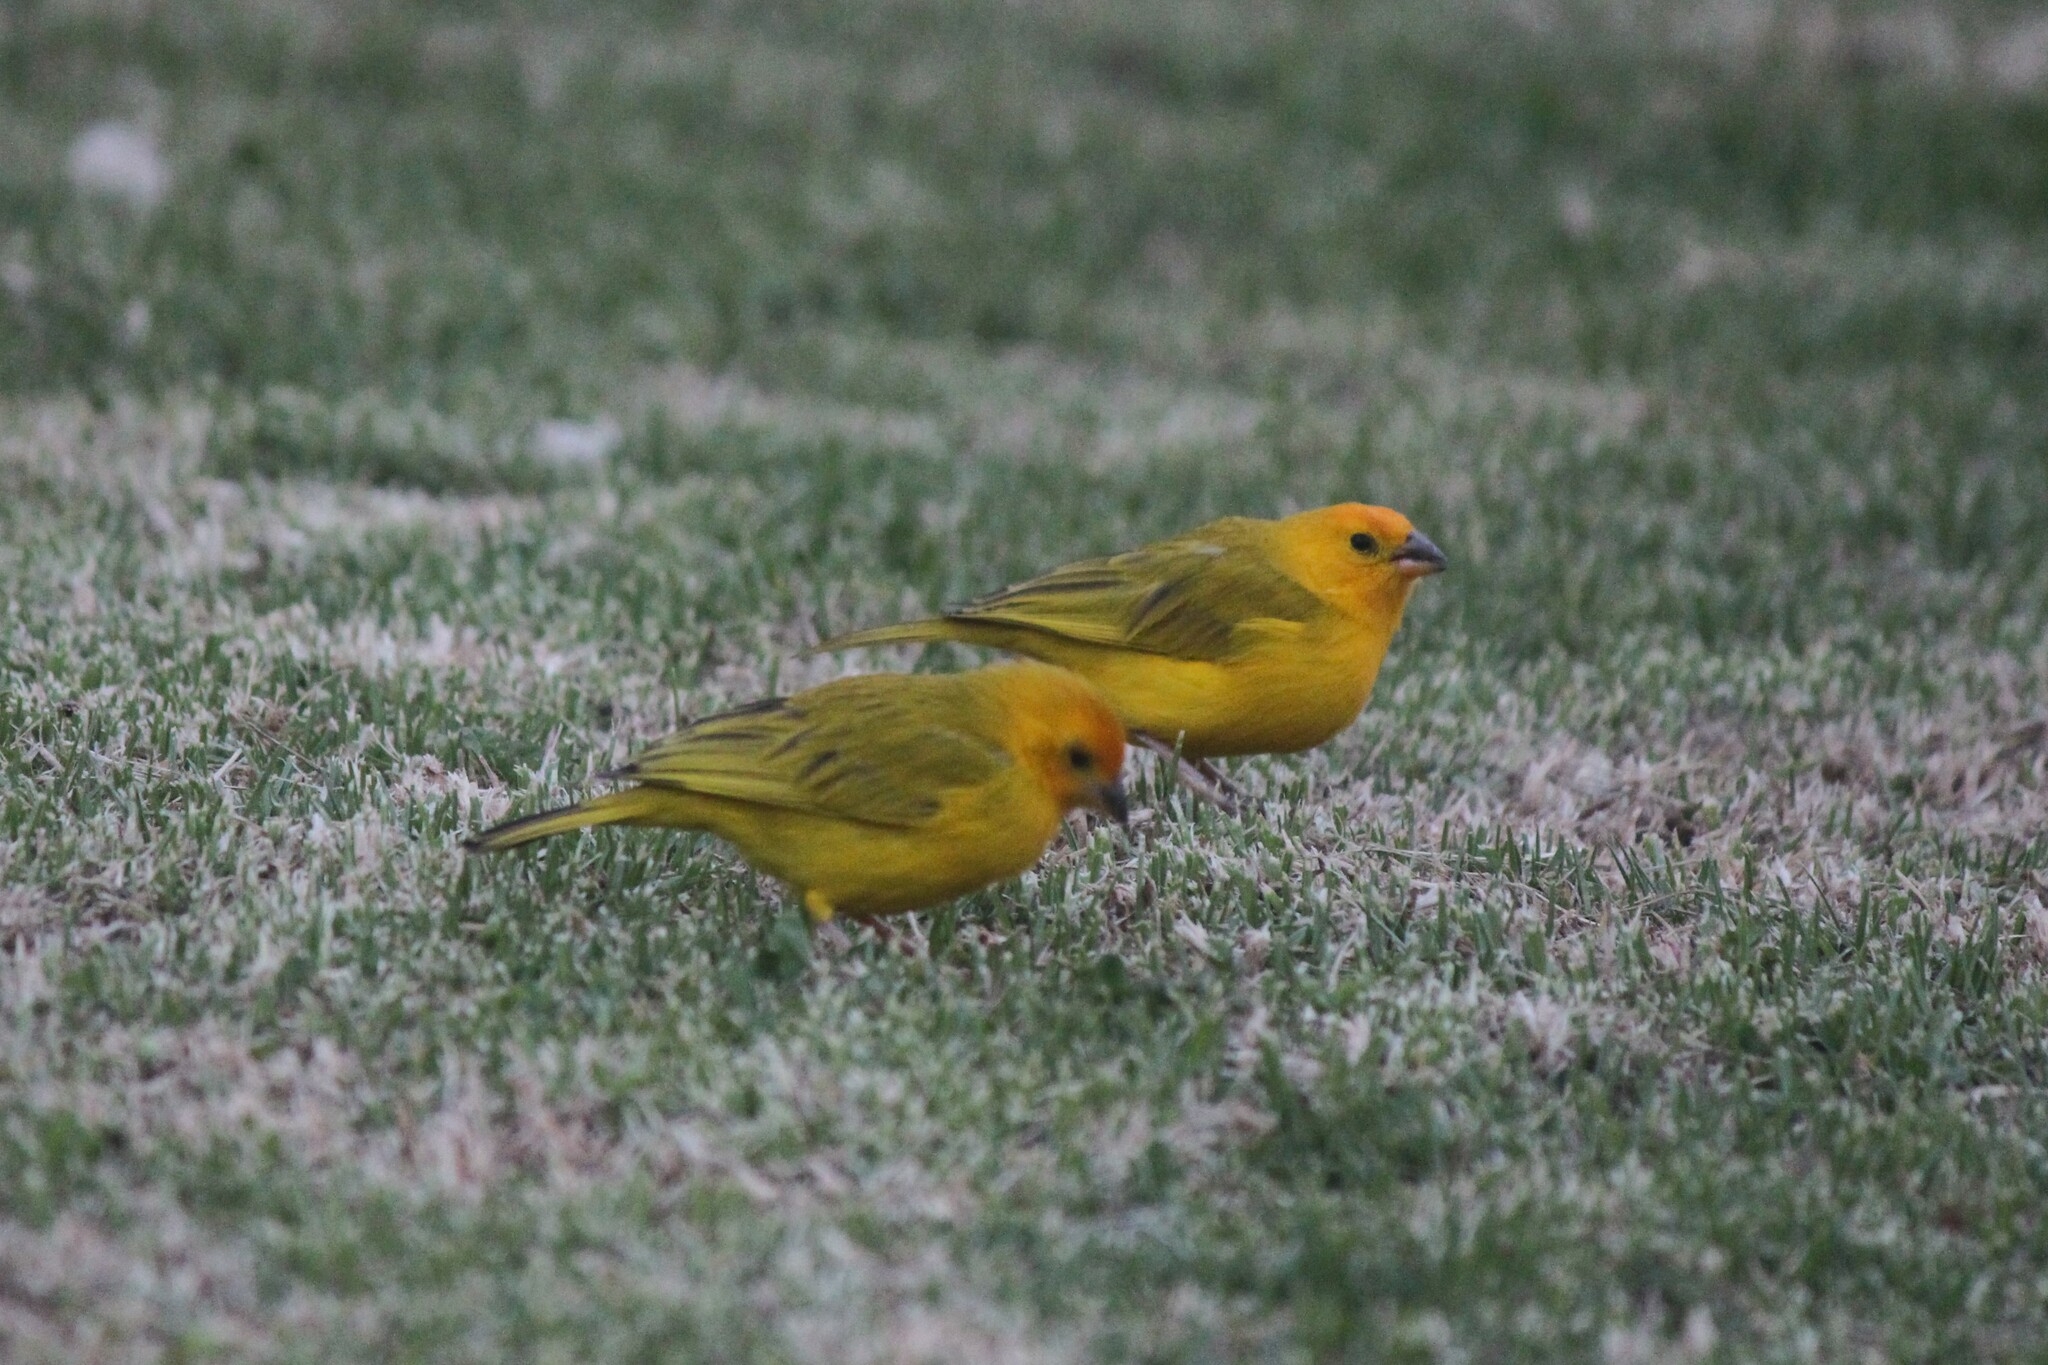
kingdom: Animalia
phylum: Chordata
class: Aves
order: Passeriformes
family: Thraupidae
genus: Sicalis
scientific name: Sicalis flaveola
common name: Saffron finch
